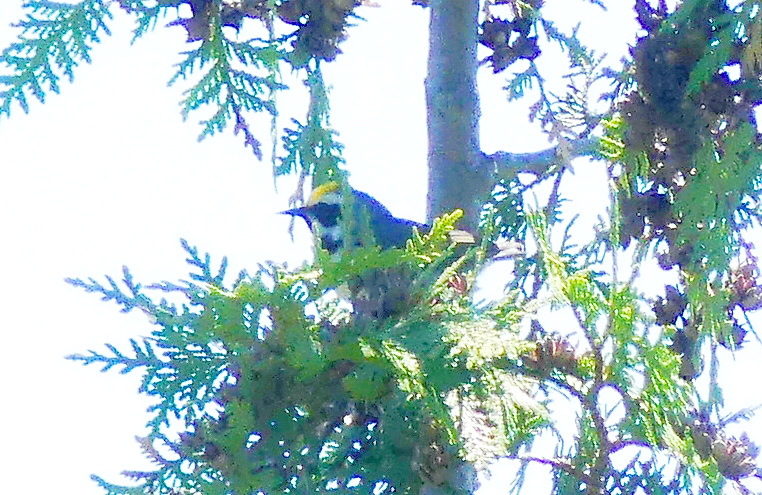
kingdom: Animalia
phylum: Chordata
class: Aves
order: Passeriformes
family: Parulidae
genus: Vermivora
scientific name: Vermivora chrysoptera
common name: Golden-winged warbler
